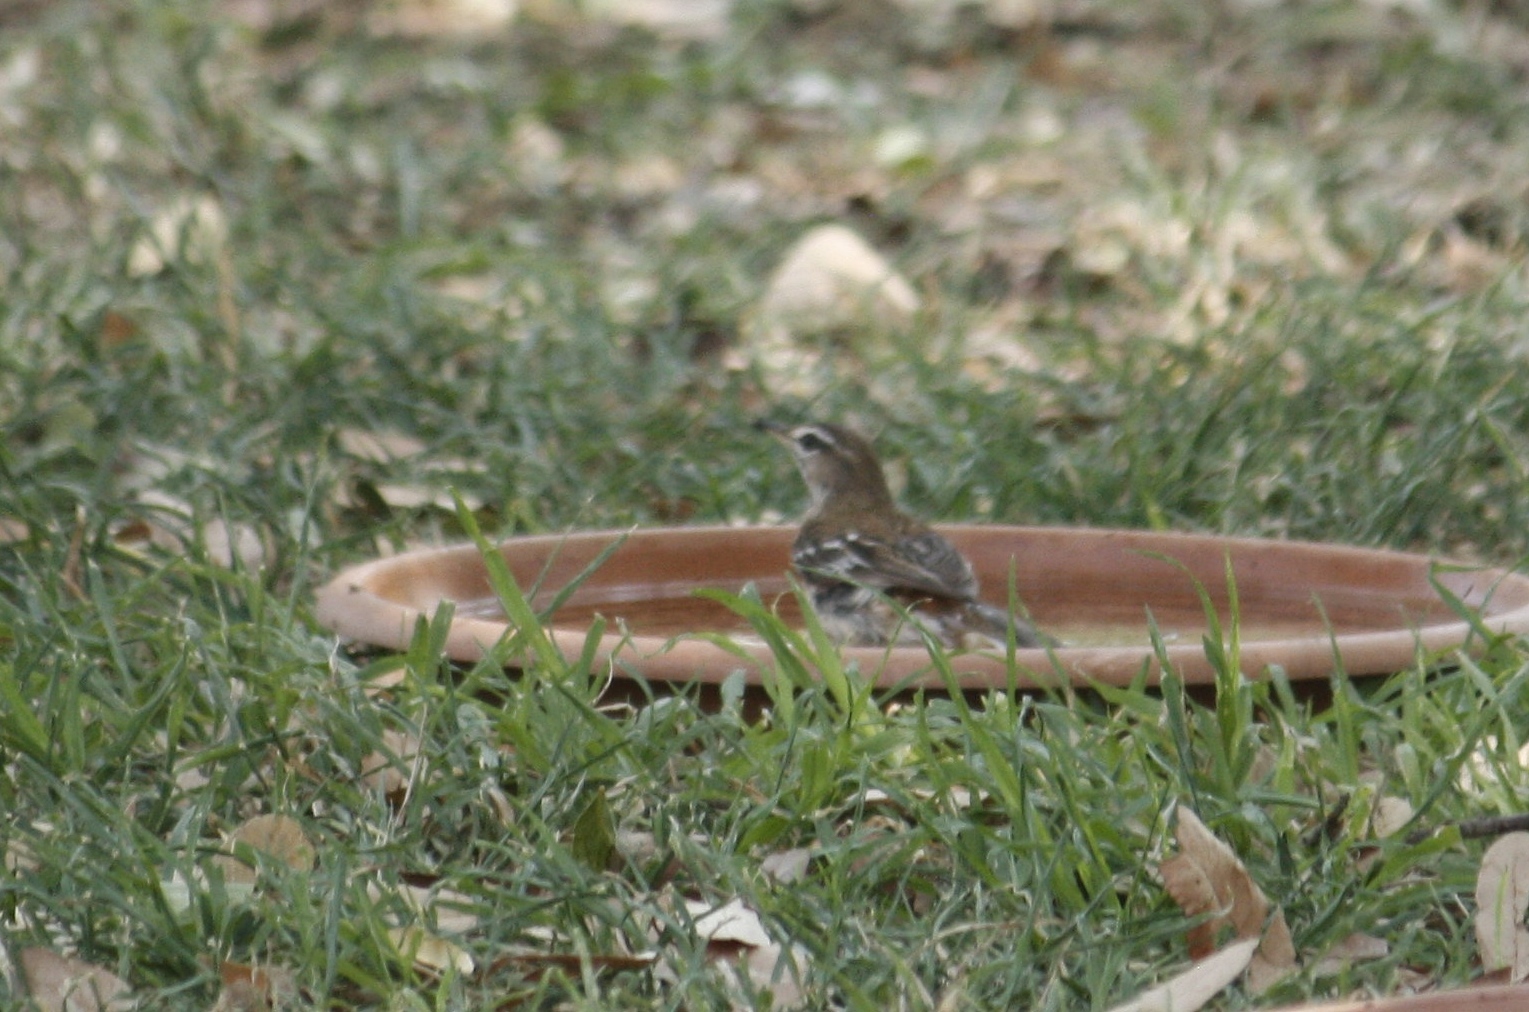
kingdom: Animalia
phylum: Chordata
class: Aves
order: Passeriformes
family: Muscicapidae
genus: Erythropygia
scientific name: Erythropygia leucophrys
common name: White-browed scrub robin
